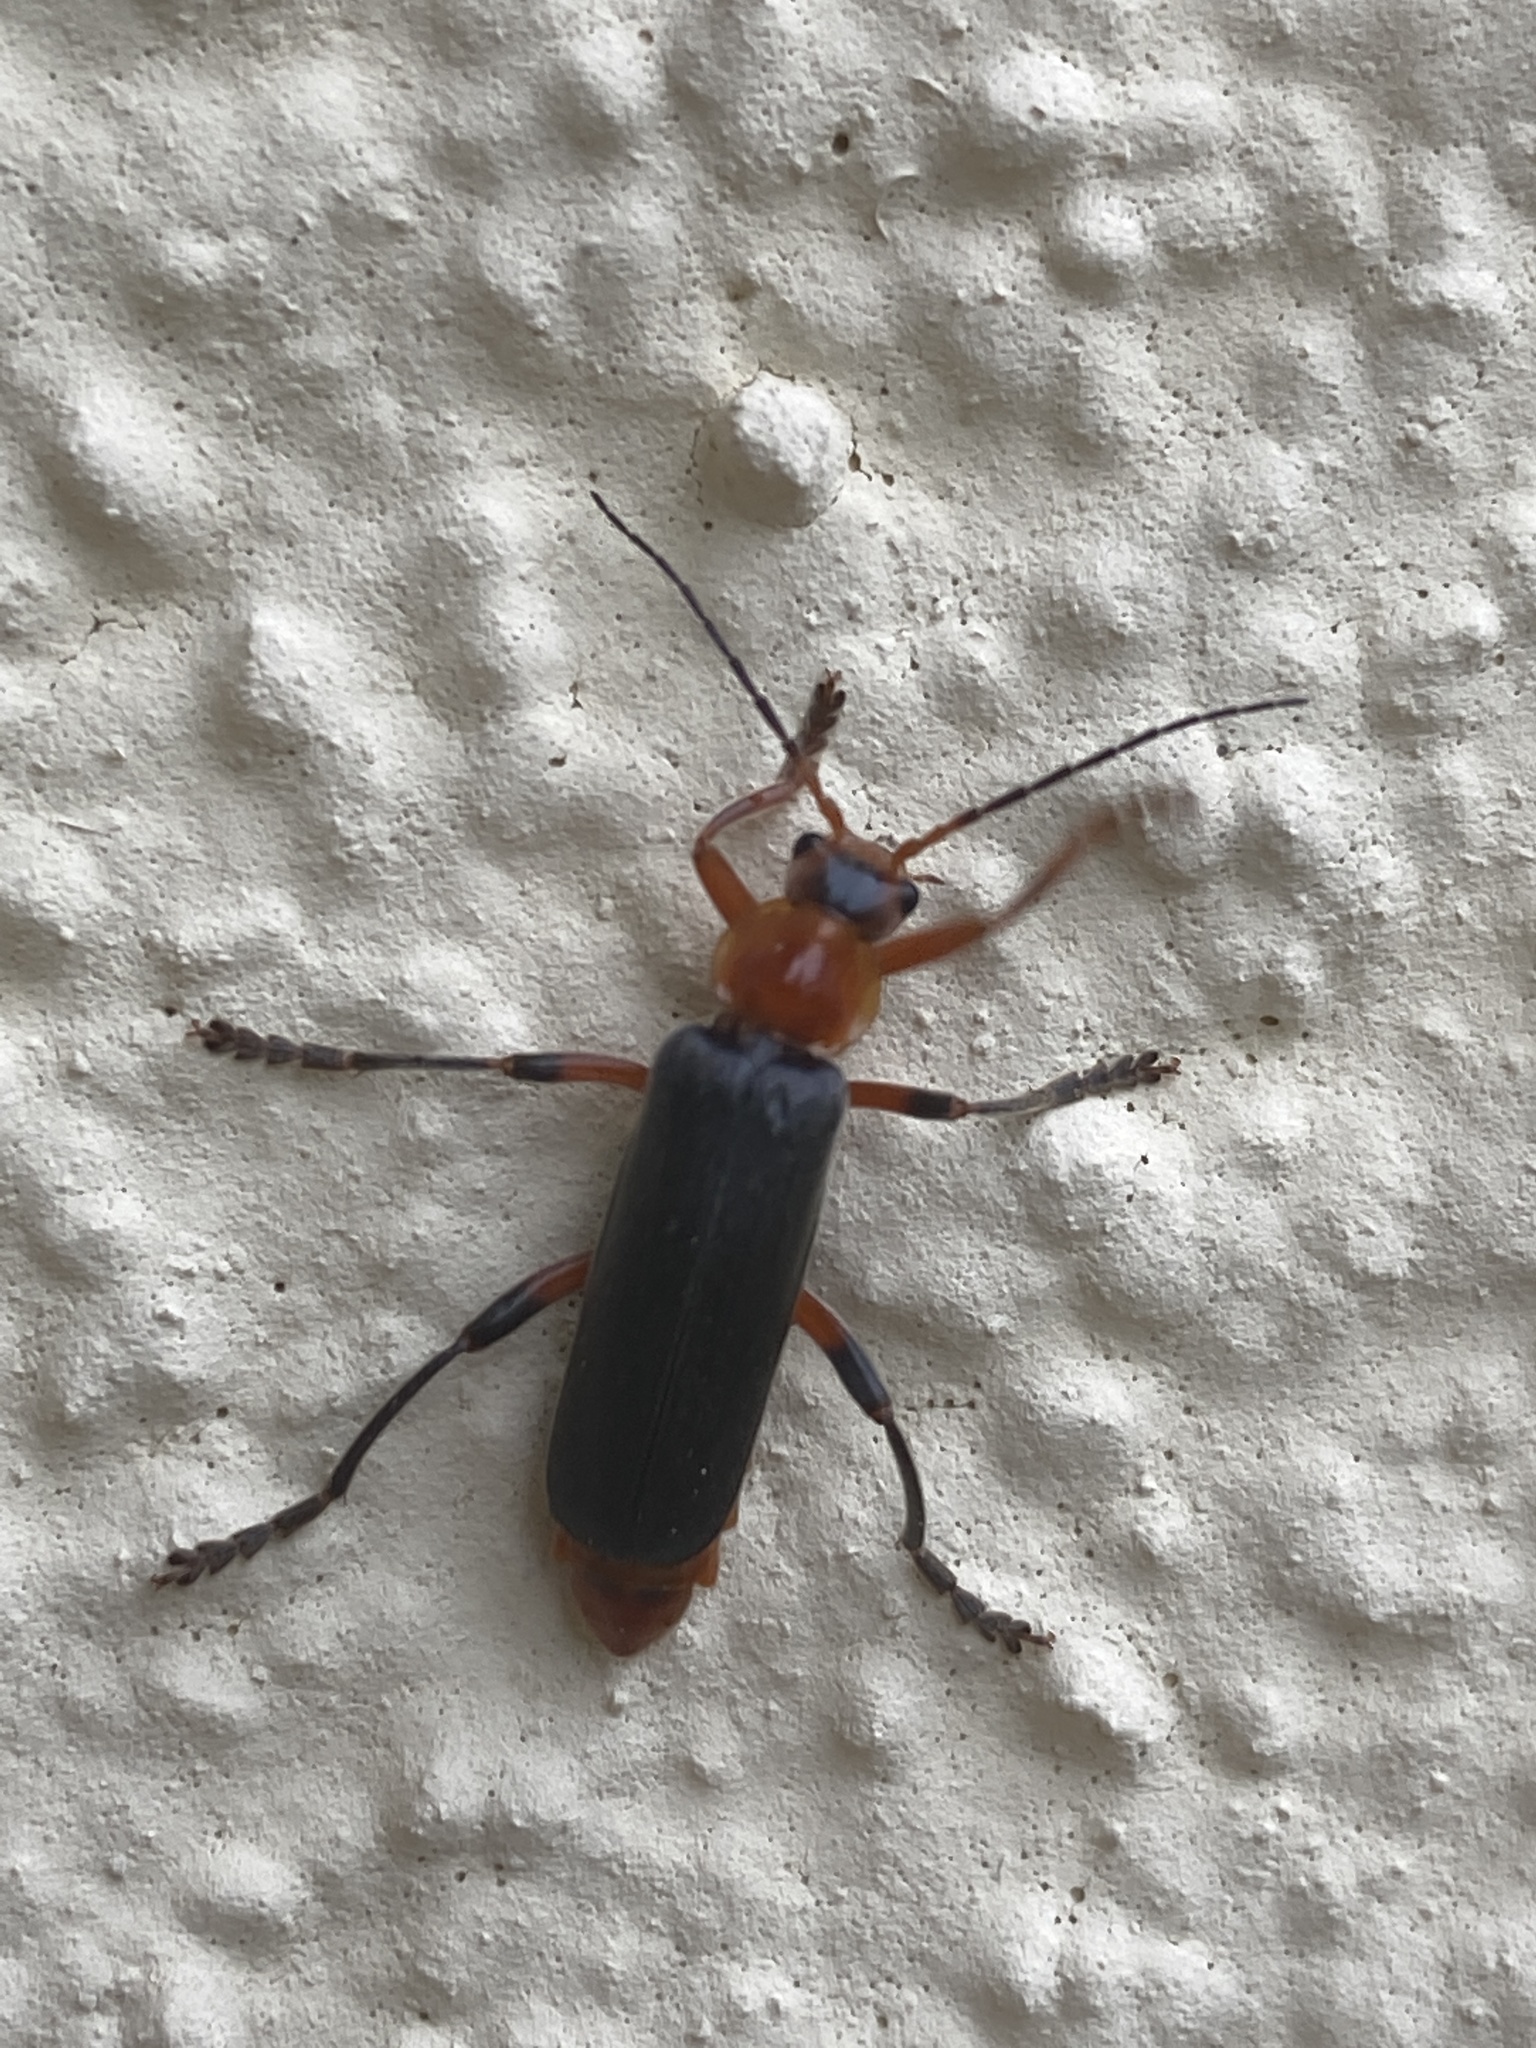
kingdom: Animalia
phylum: Arthropoda
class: Insecta
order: Coleoptera
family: Cantharidae
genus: Cantharis
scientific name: Cantharis livida
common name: Livid soldier beetle
